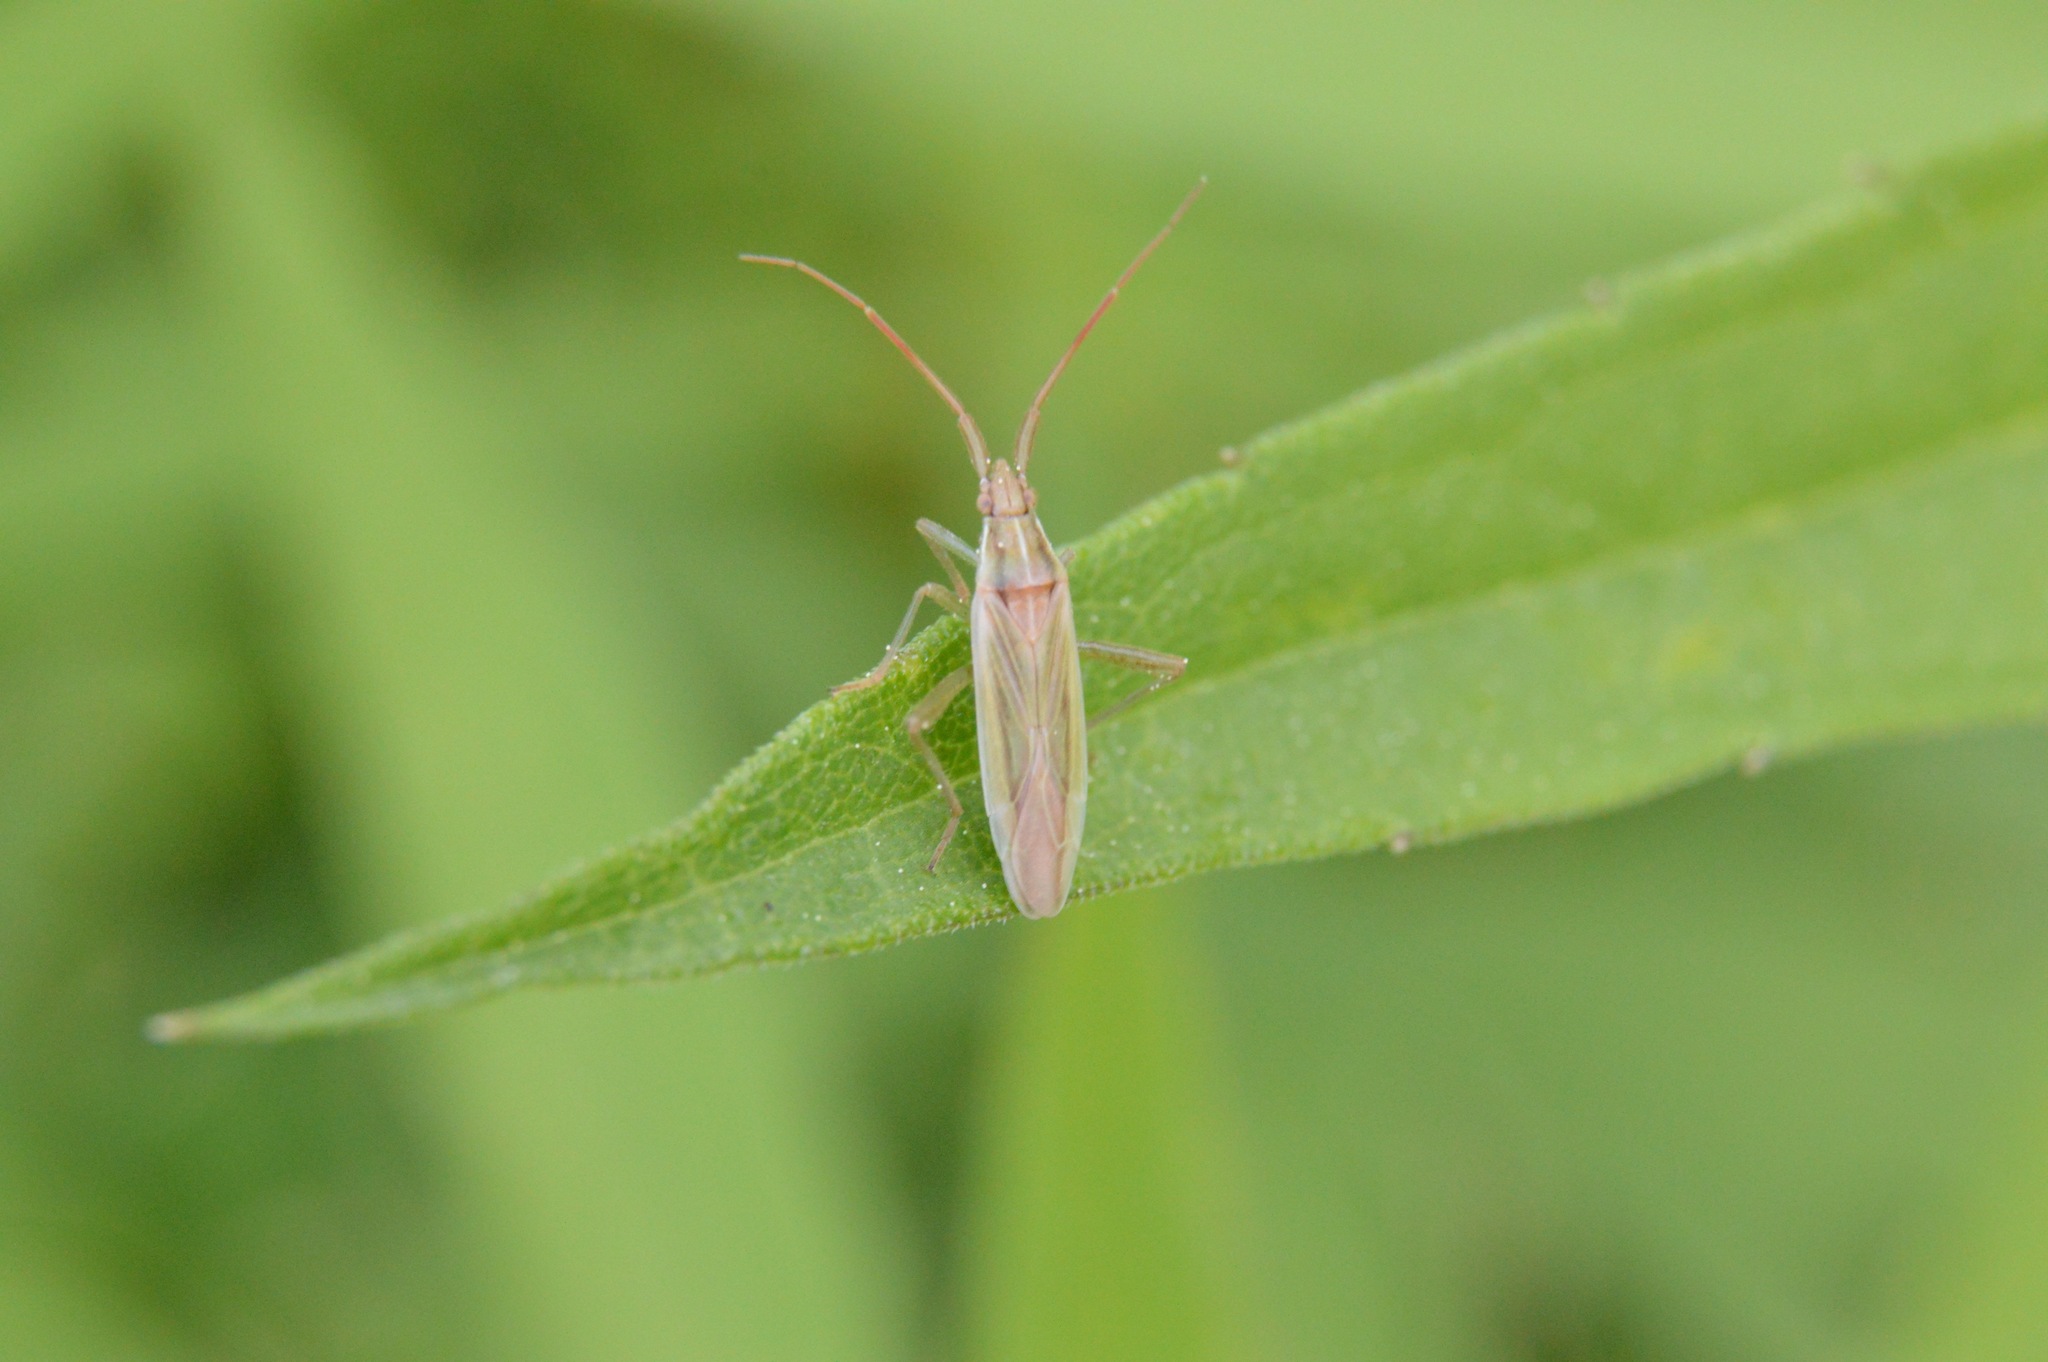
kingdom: Animalia
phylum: Arthropoda
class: Insecta
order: Hemiptera
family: Miridae
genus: Stenodema
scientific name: Stenodema trispinosa
